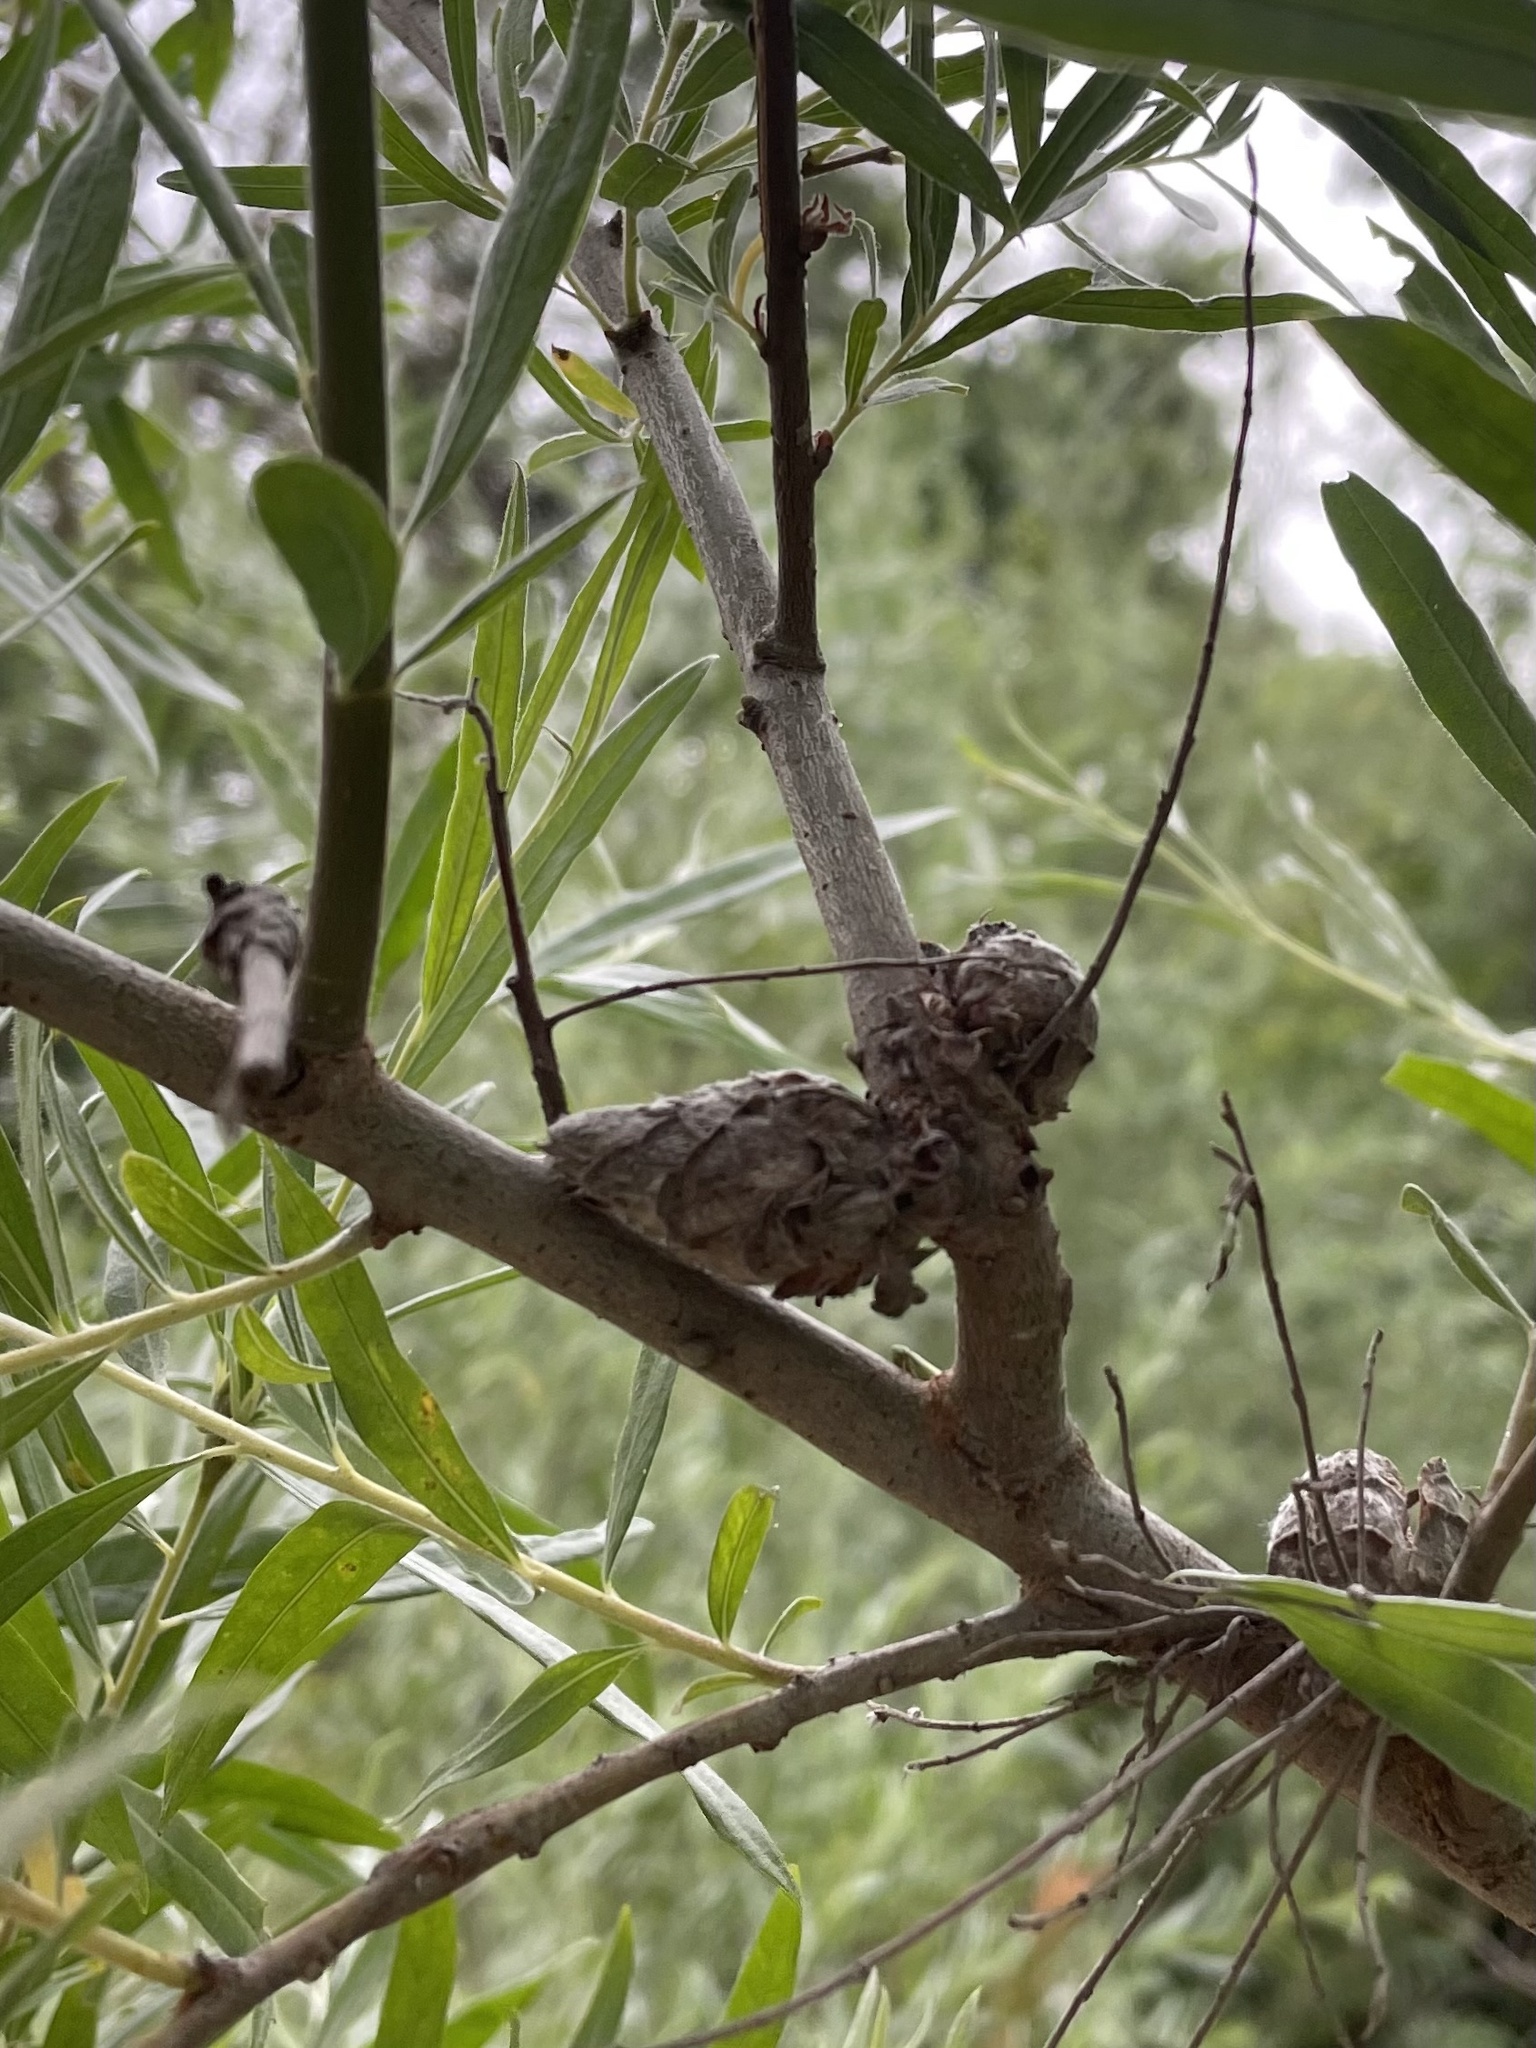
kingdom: Animalia
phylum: Arthropoda
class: Insecta
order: Diptera
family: Cecidomyiidae
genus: Rabdophaga
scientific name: Rabdophaga strobiloides
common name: Willow pinecone gall midge
